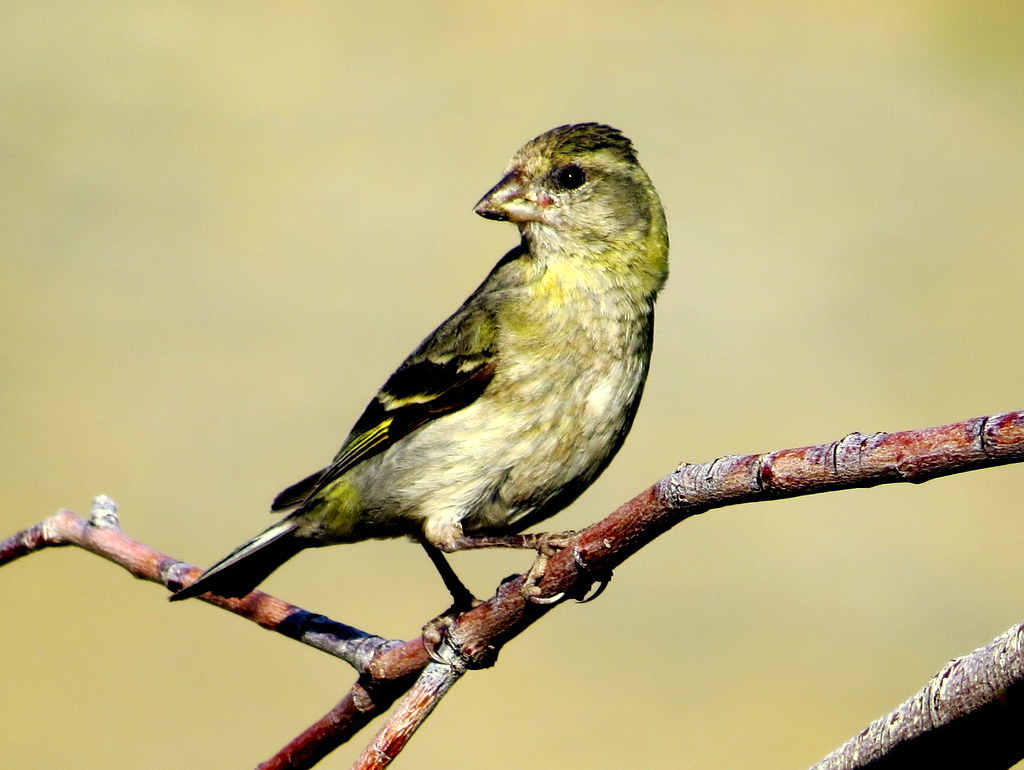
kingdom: Animalia
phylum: Chordata
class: Aves
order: Passeriformes
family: Fringillidae
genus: Spinus
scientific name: Spinus barbatus
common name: Black-chinned siskin
